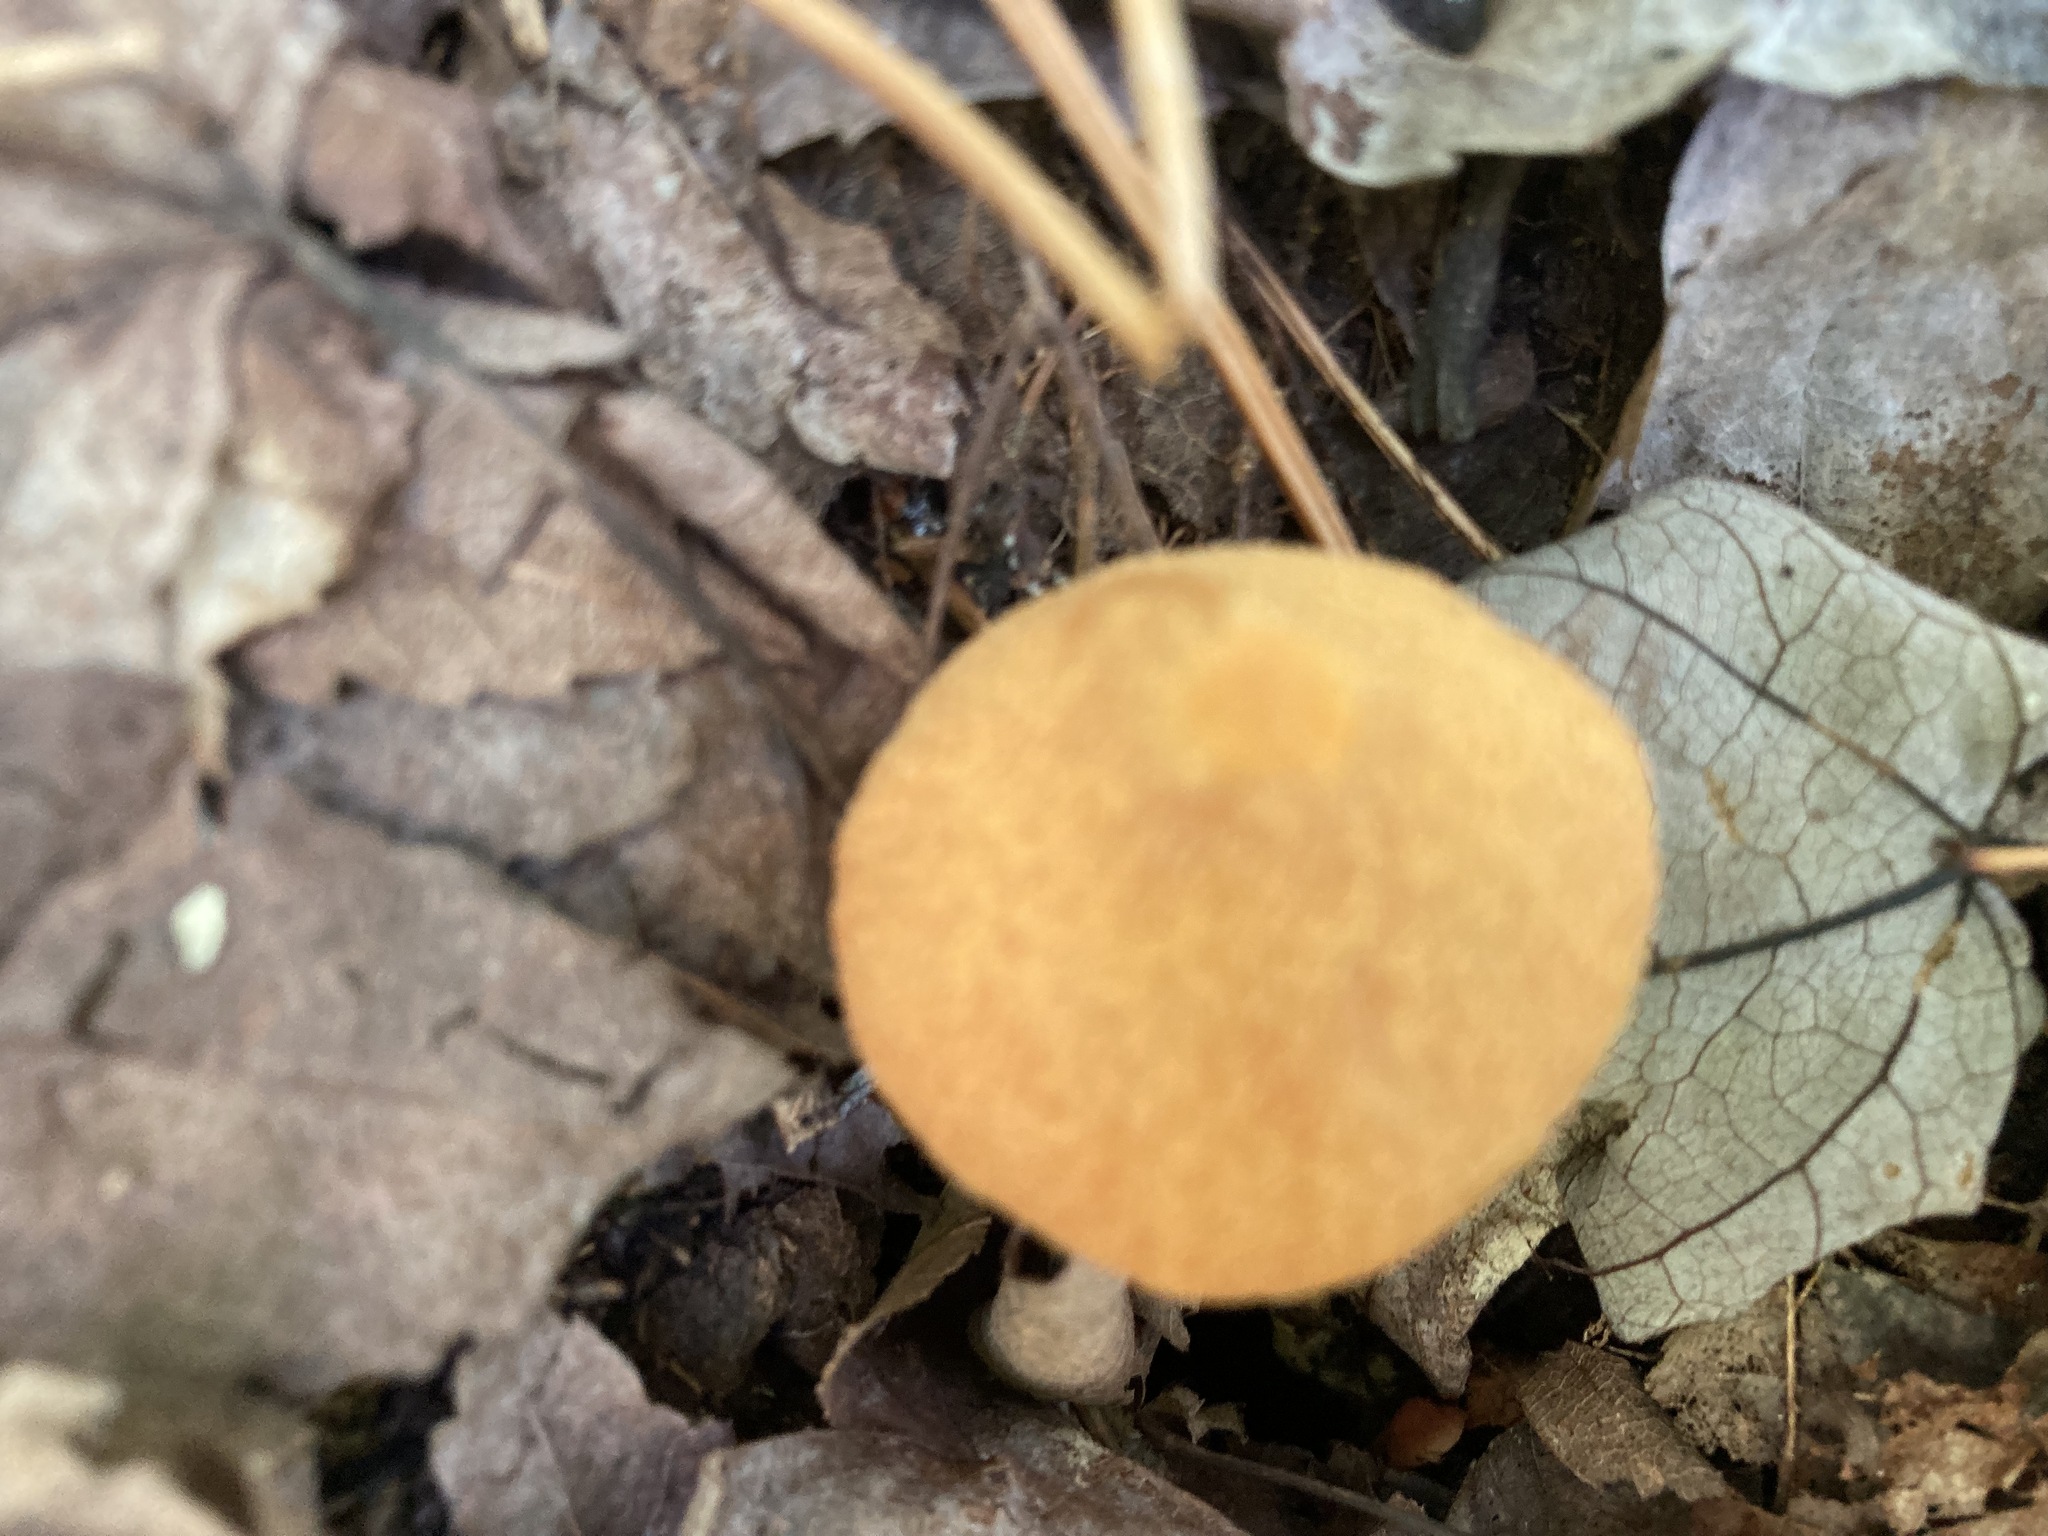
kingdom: Fungi
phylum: Basidiomycota
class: Agaricomycetes
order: Agaricales
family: Entolomataceae
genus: Entoloma
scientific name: Entoloma quadratum
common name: Salmon pinkgill
